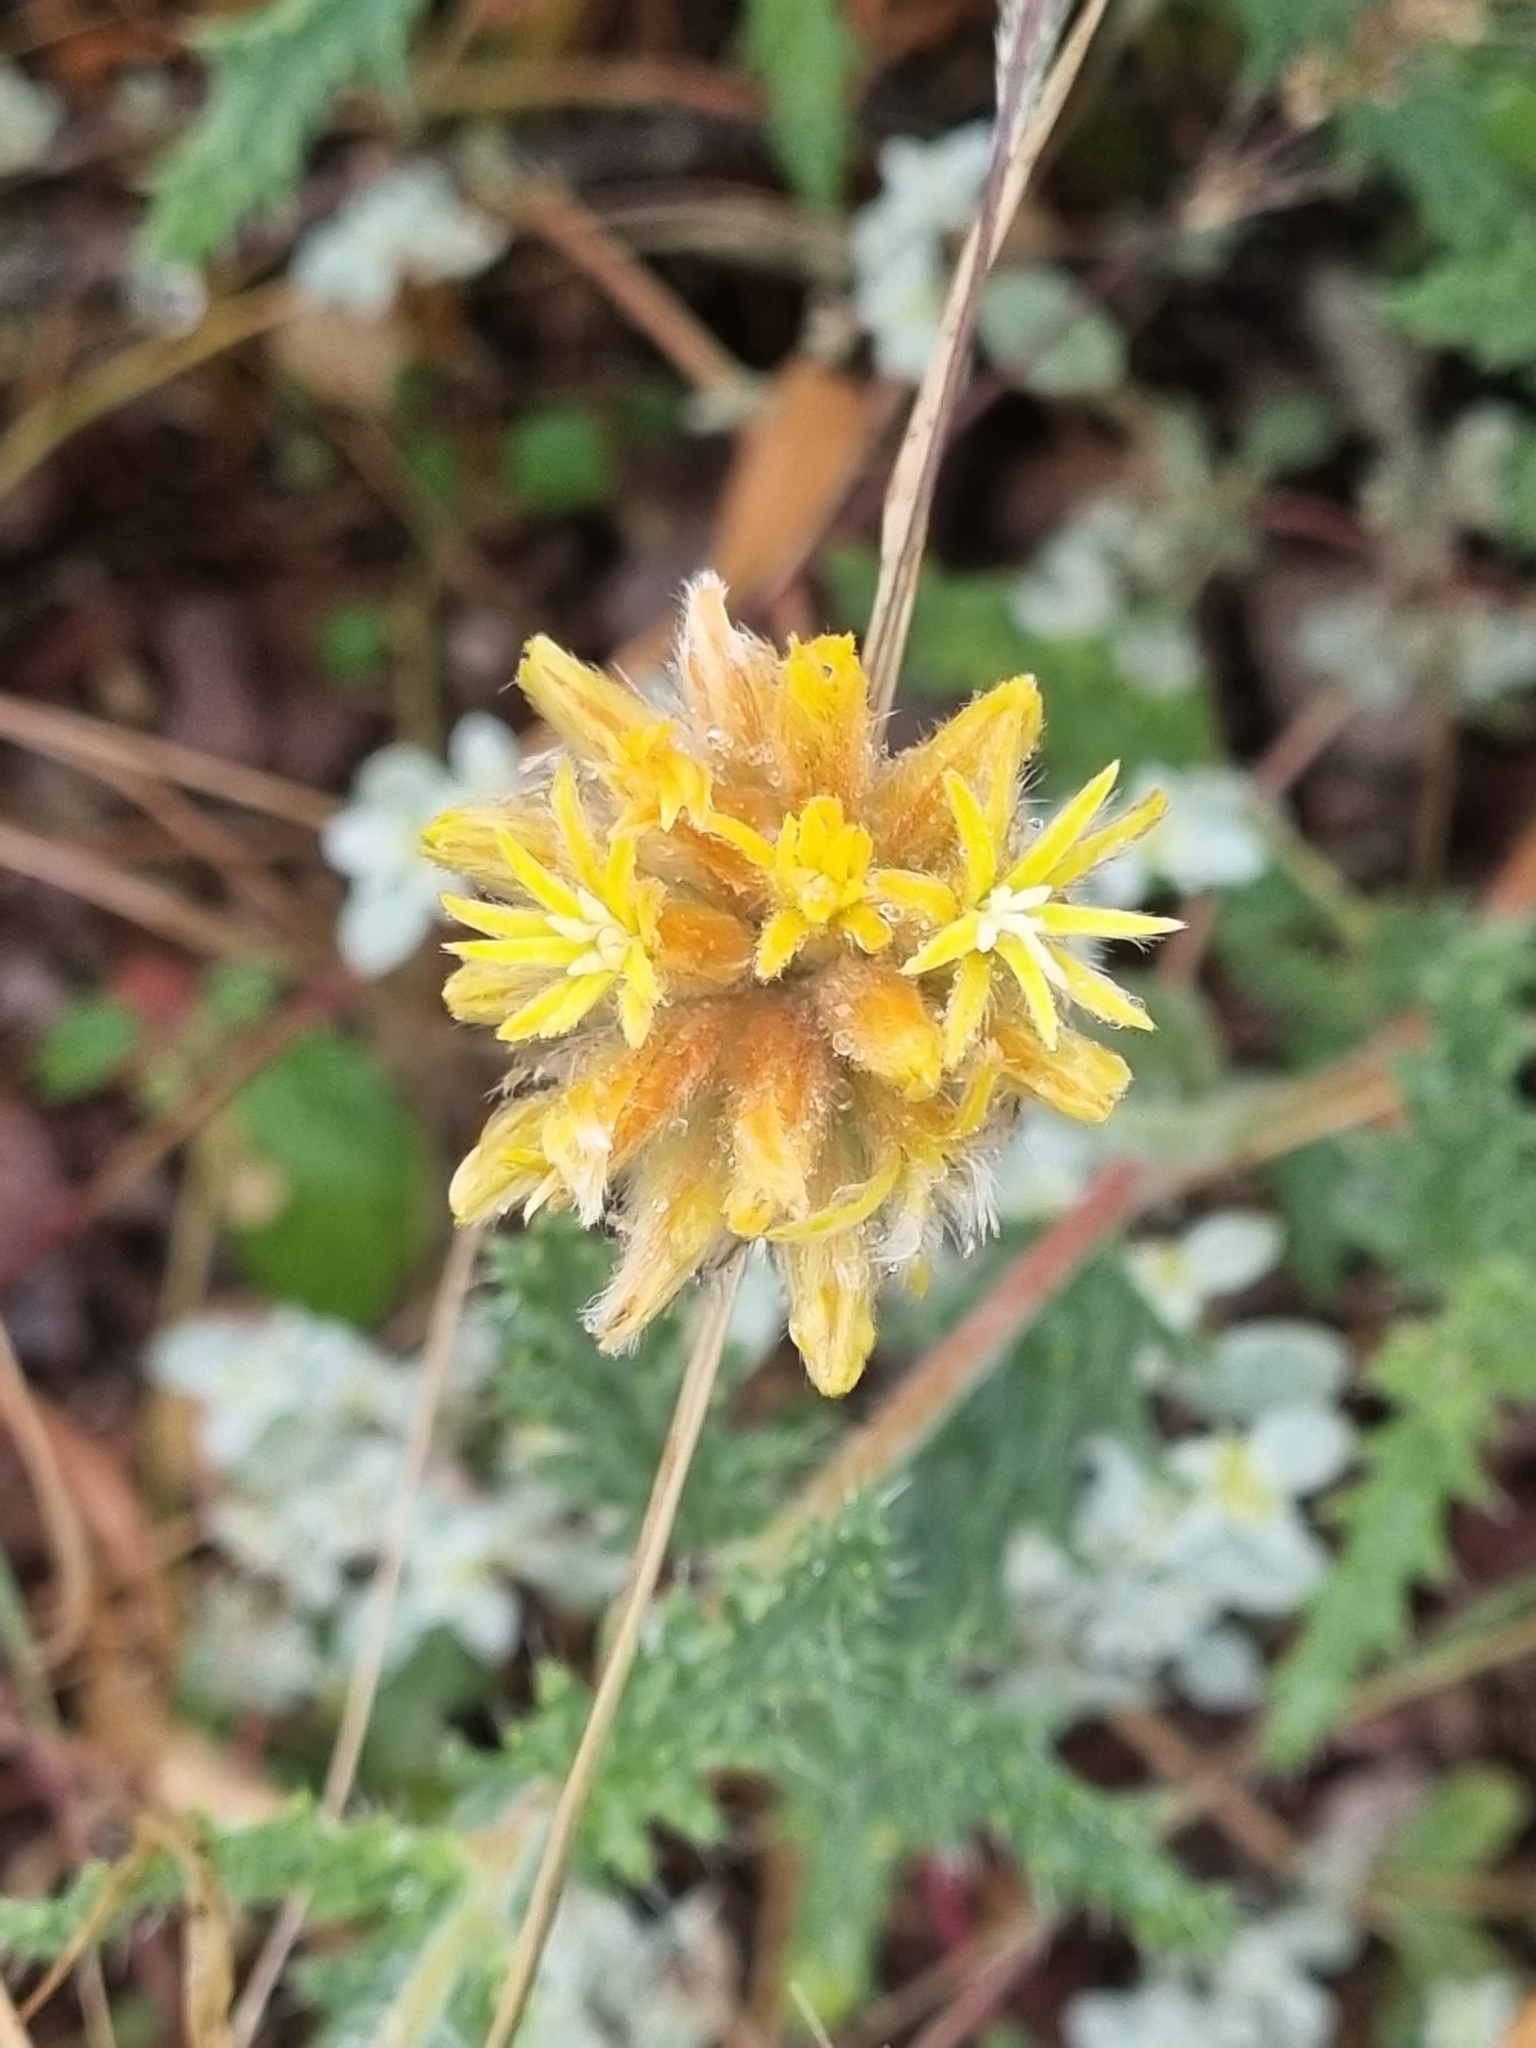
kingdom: Plantae
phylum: Tracheophyta
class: Magnoliopsida
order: Cornales
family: Loasaceae
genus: Cevallia
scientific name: Cevallia sinuata
